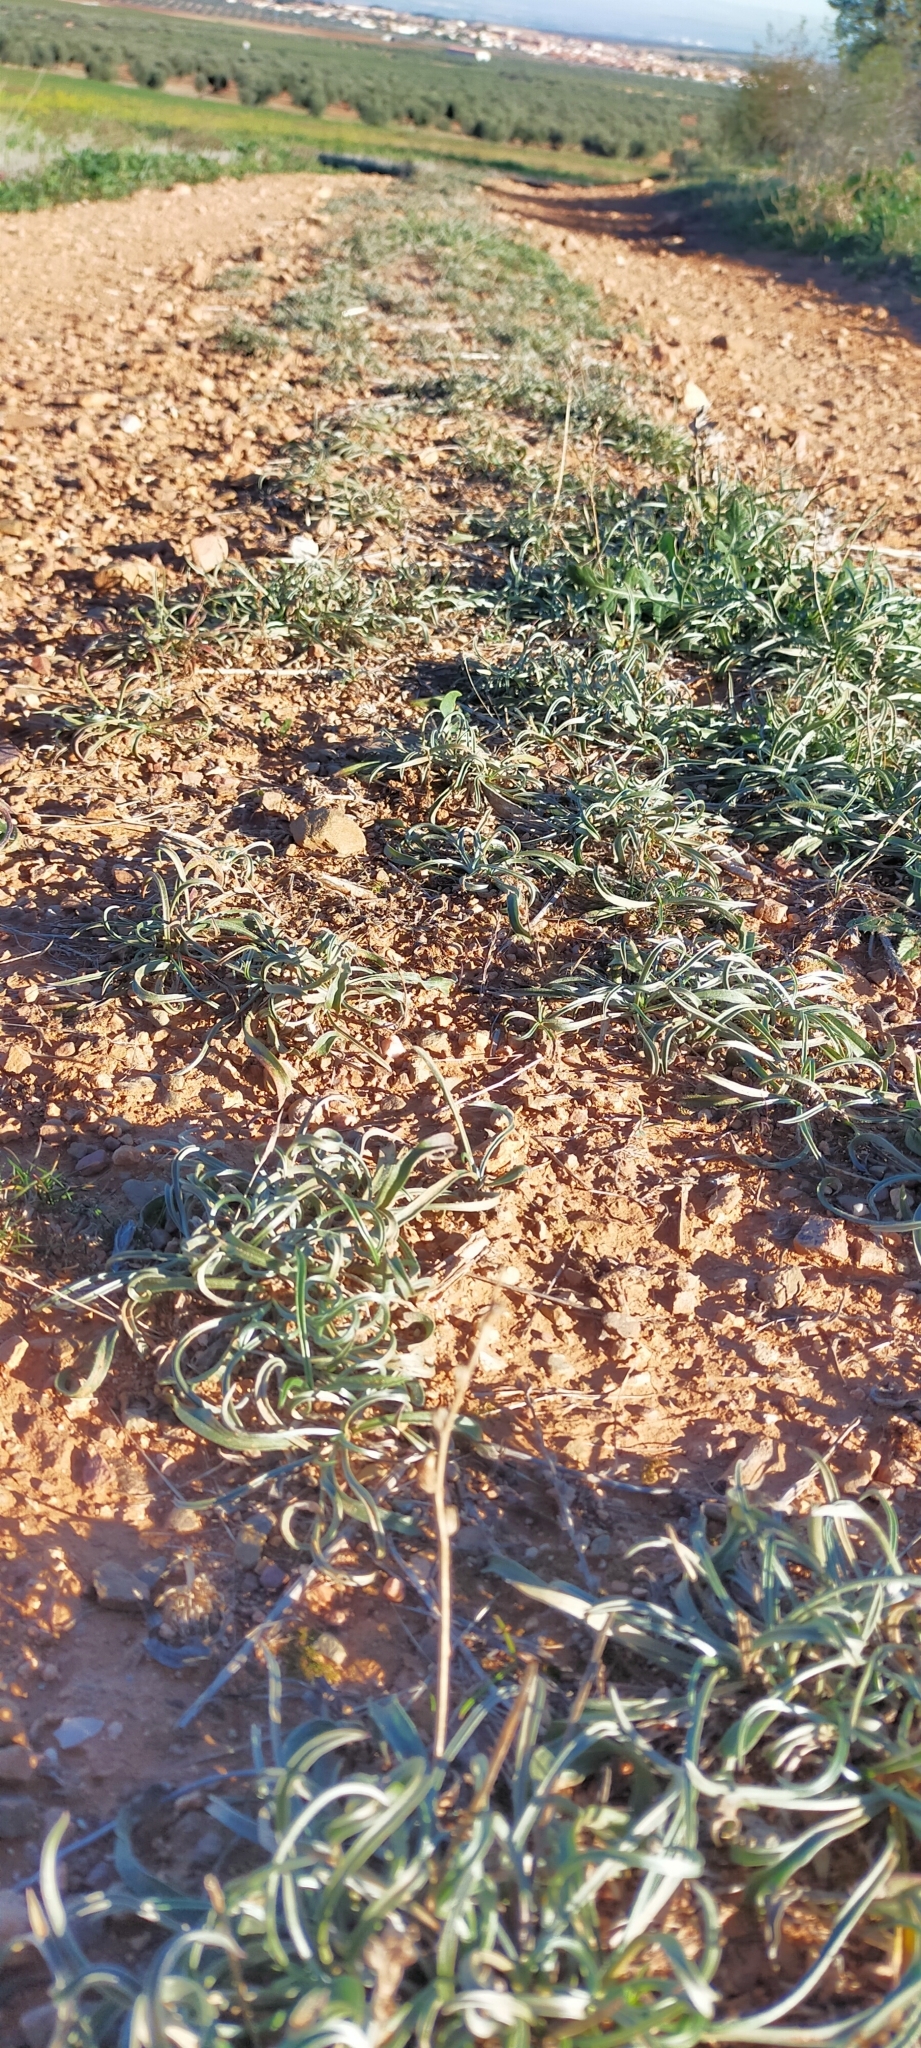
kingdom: Plantae
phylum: Tracheophyta
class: Magnoliopsida
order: Lamiales
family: Plantaginaceae
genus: Plantago
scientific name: Plantago albicans
